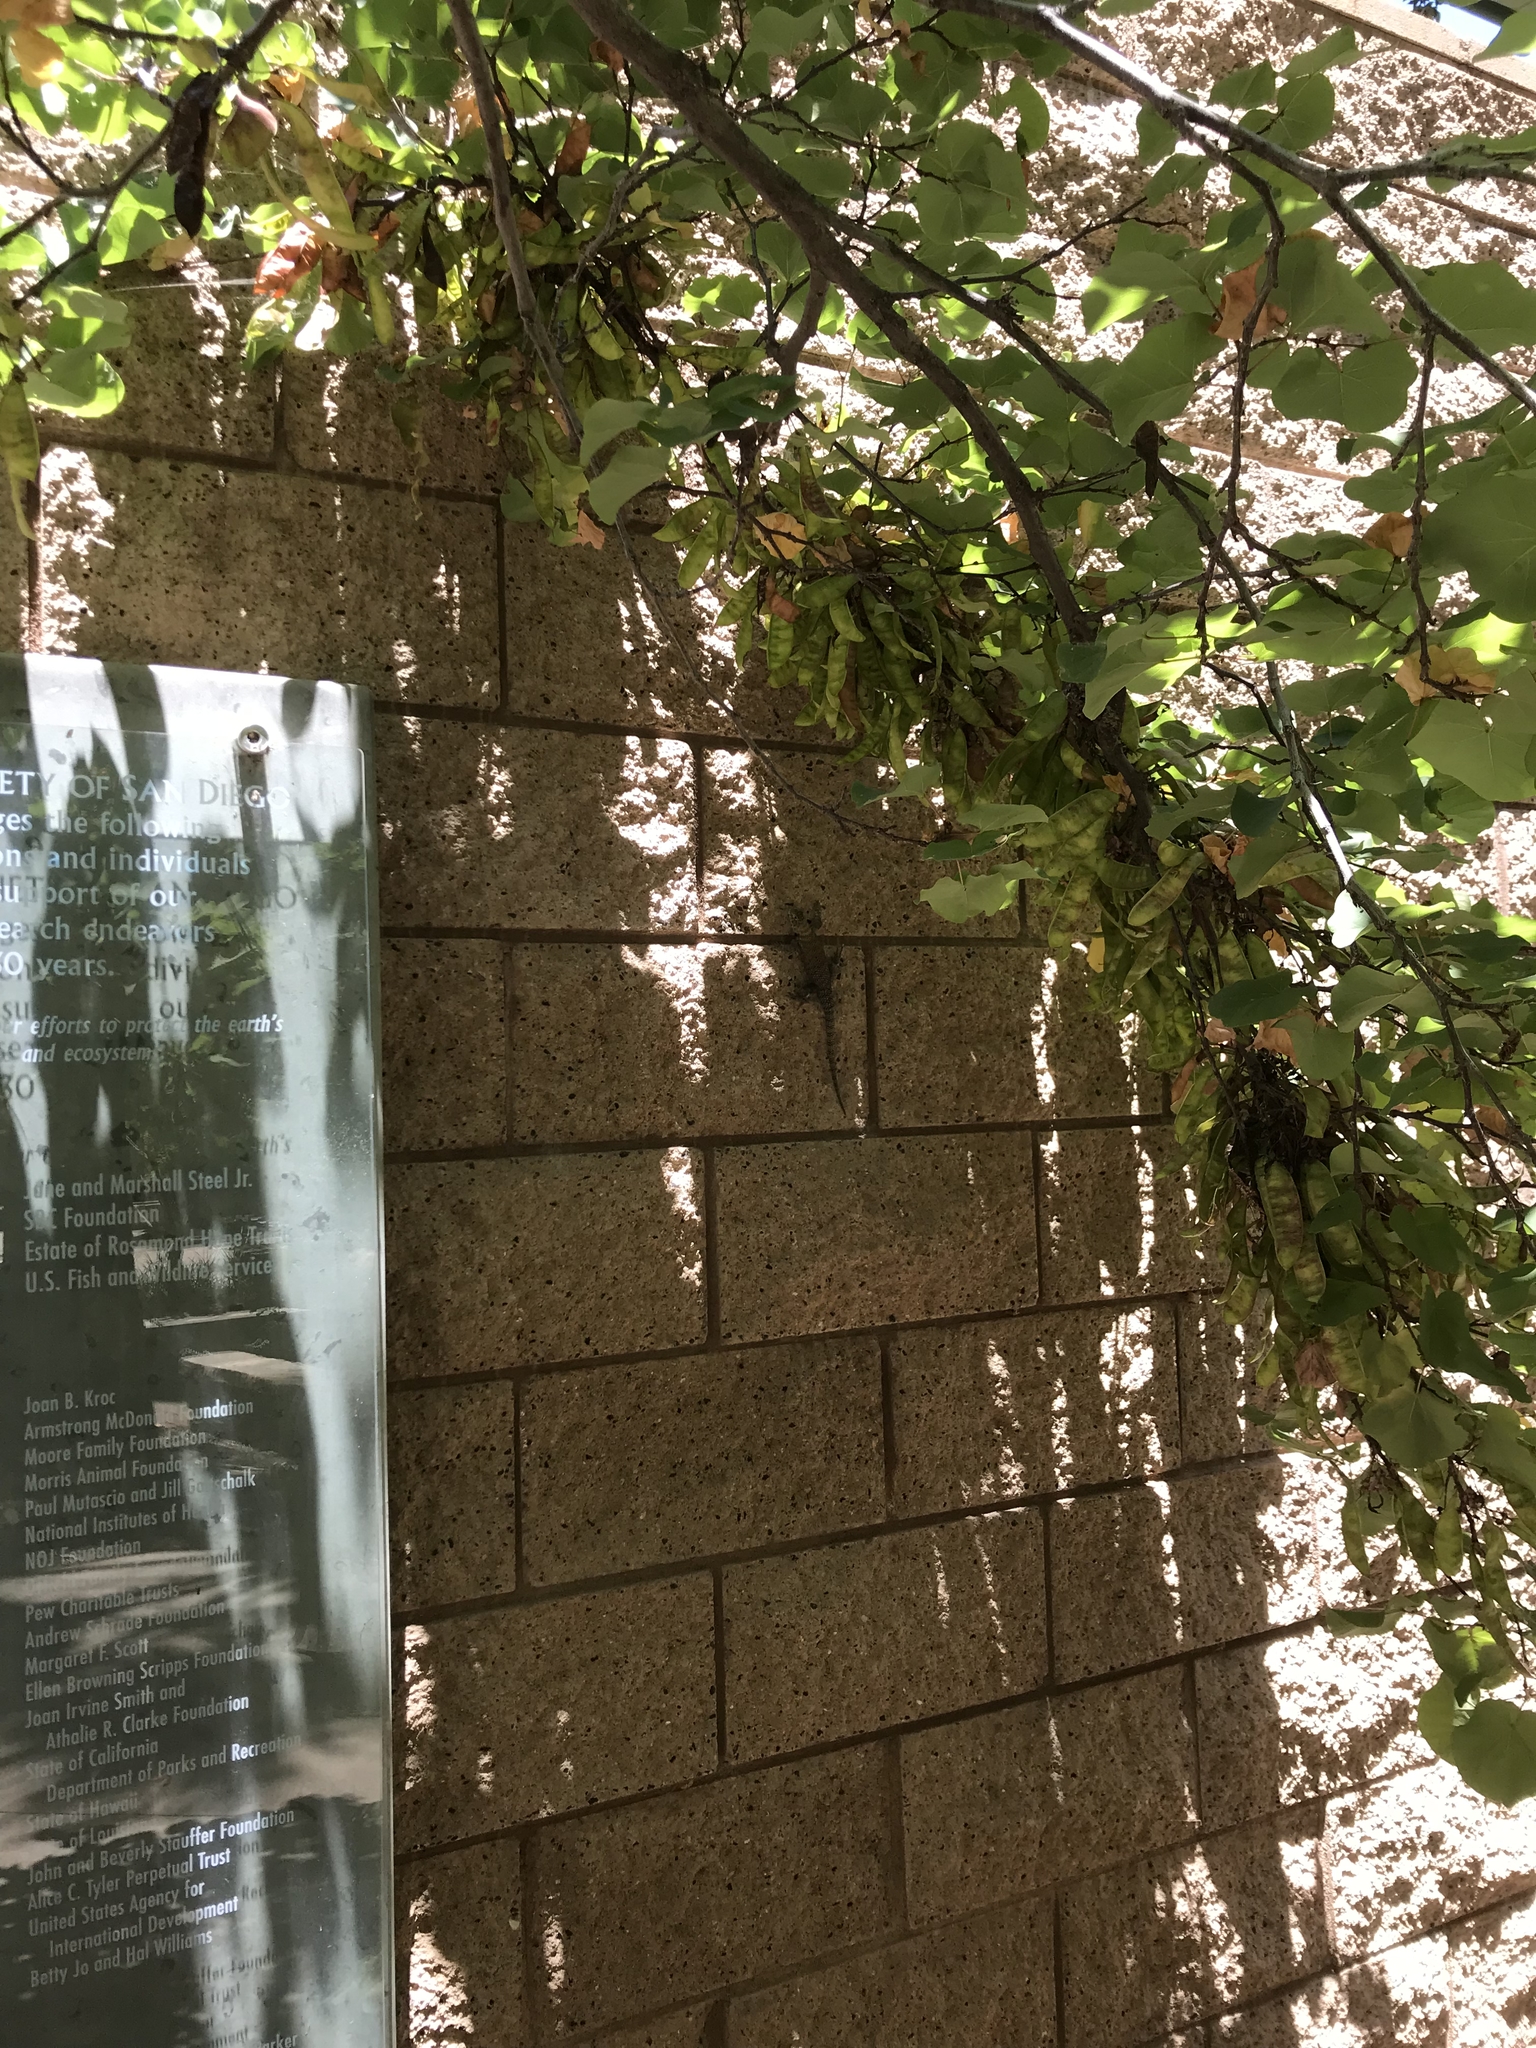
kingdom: Animalia
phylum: Chordata
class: Squamata
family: Phrynosomatidae
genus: Sceloporus
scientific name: Sceloporus orcutti
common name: Granite spiny lizard
